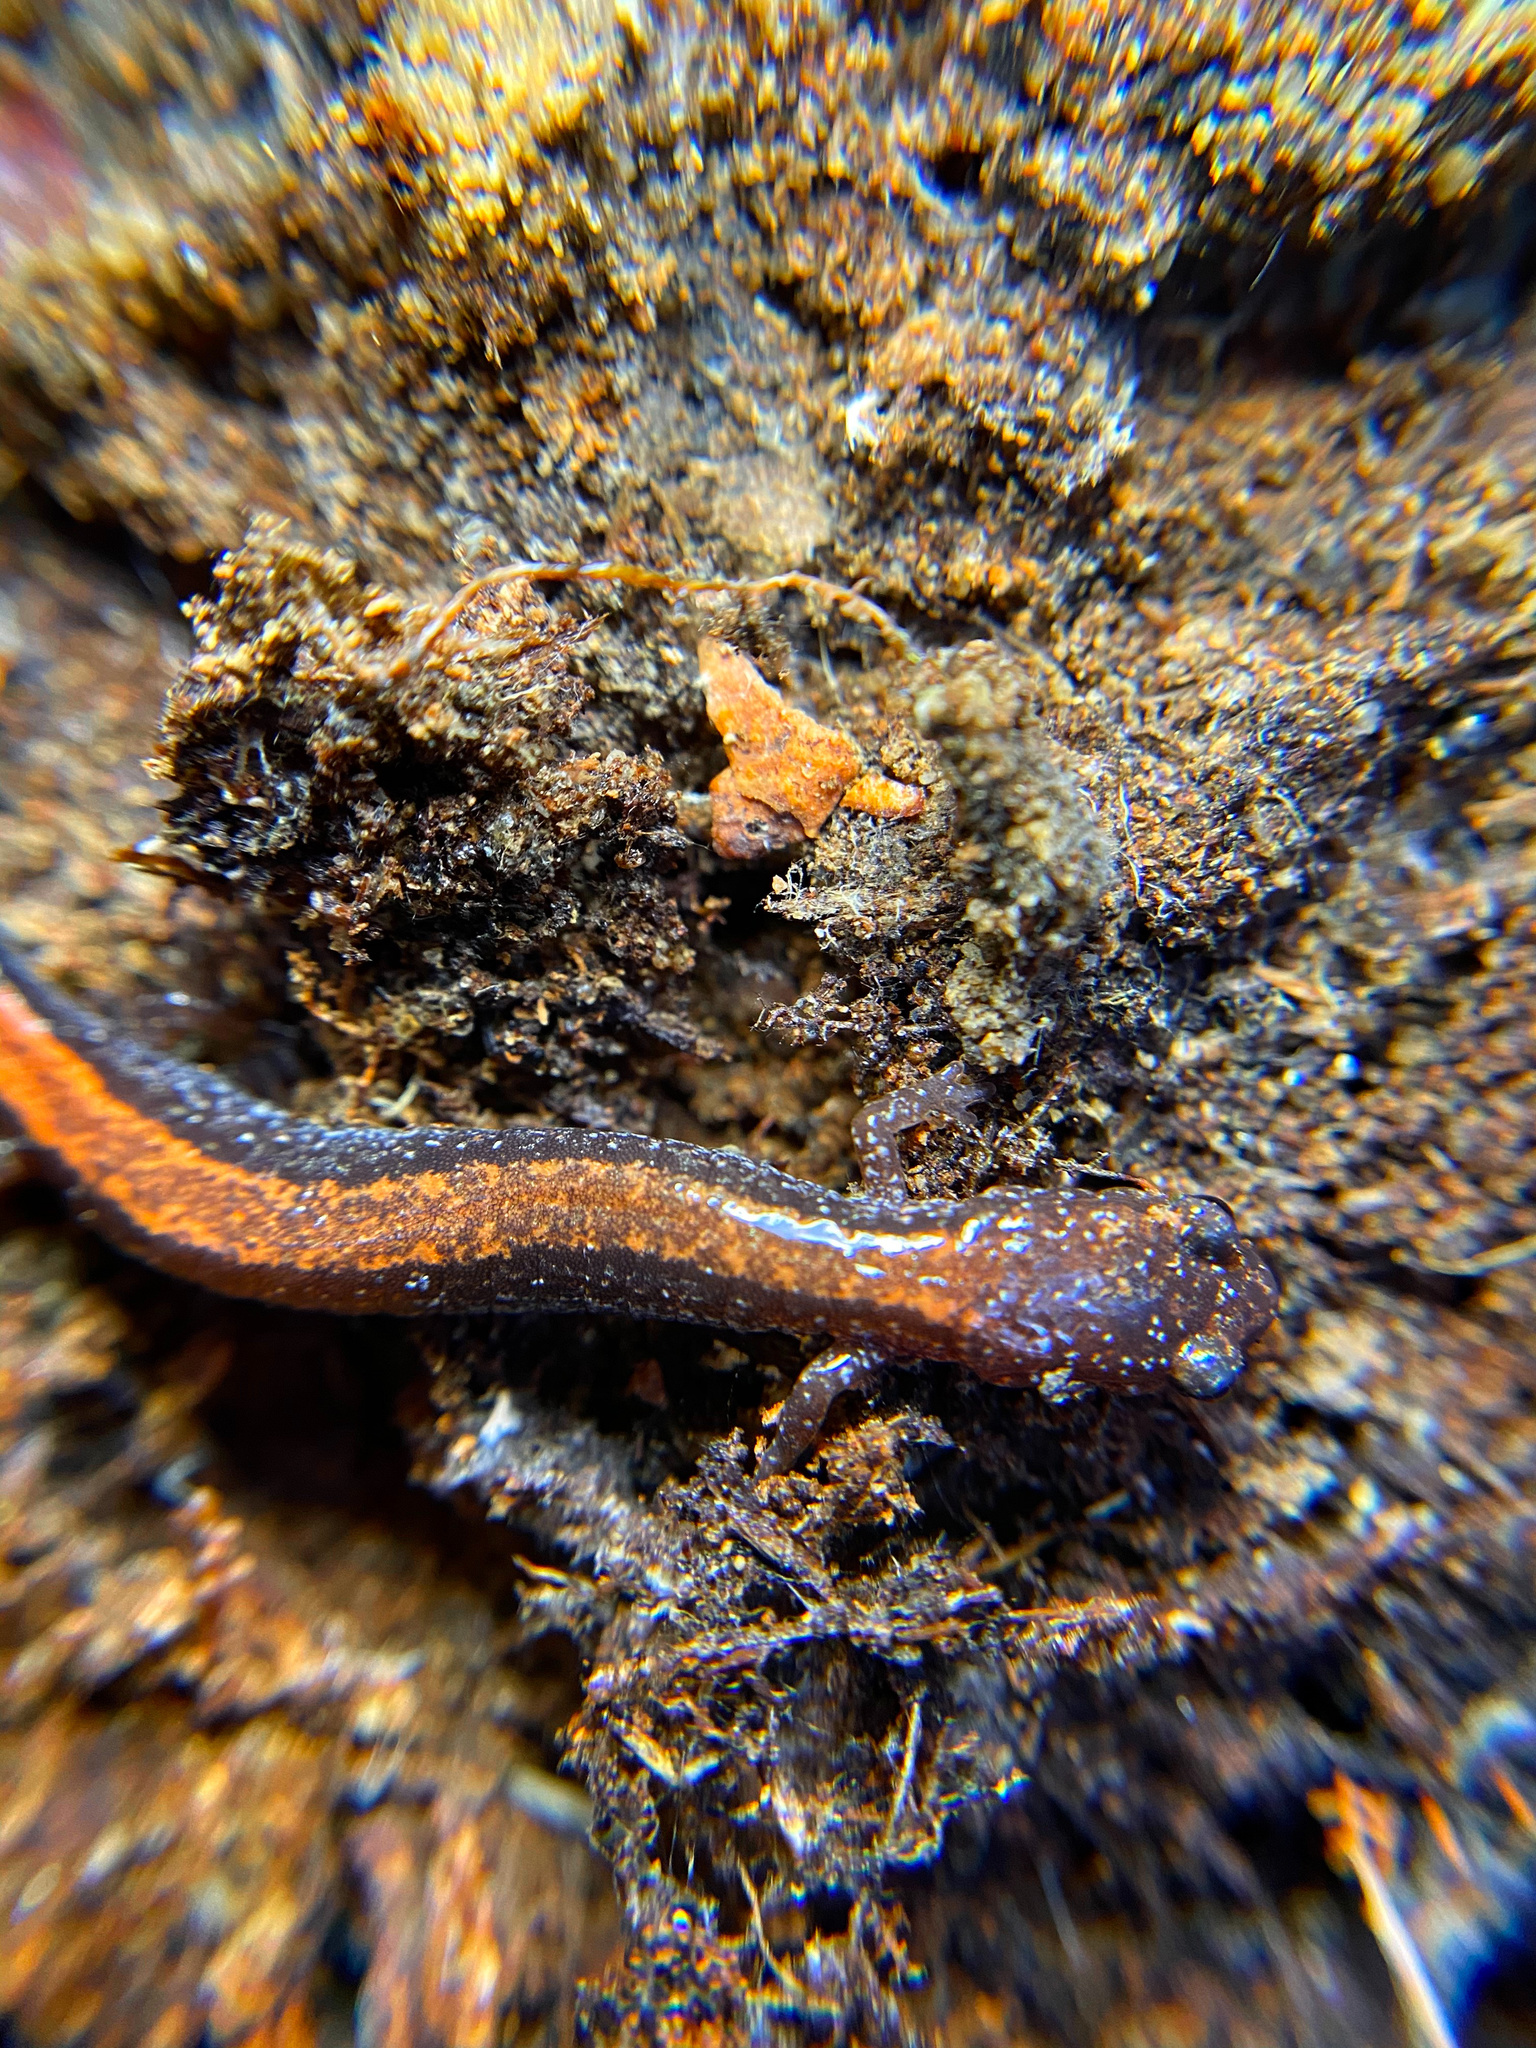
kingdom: Animalia
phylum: Chordata
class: Amphibia
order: Caudata
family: Plethodontidae
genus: Plethodon
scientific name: Plethodon cinereus
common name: Redback salamander
